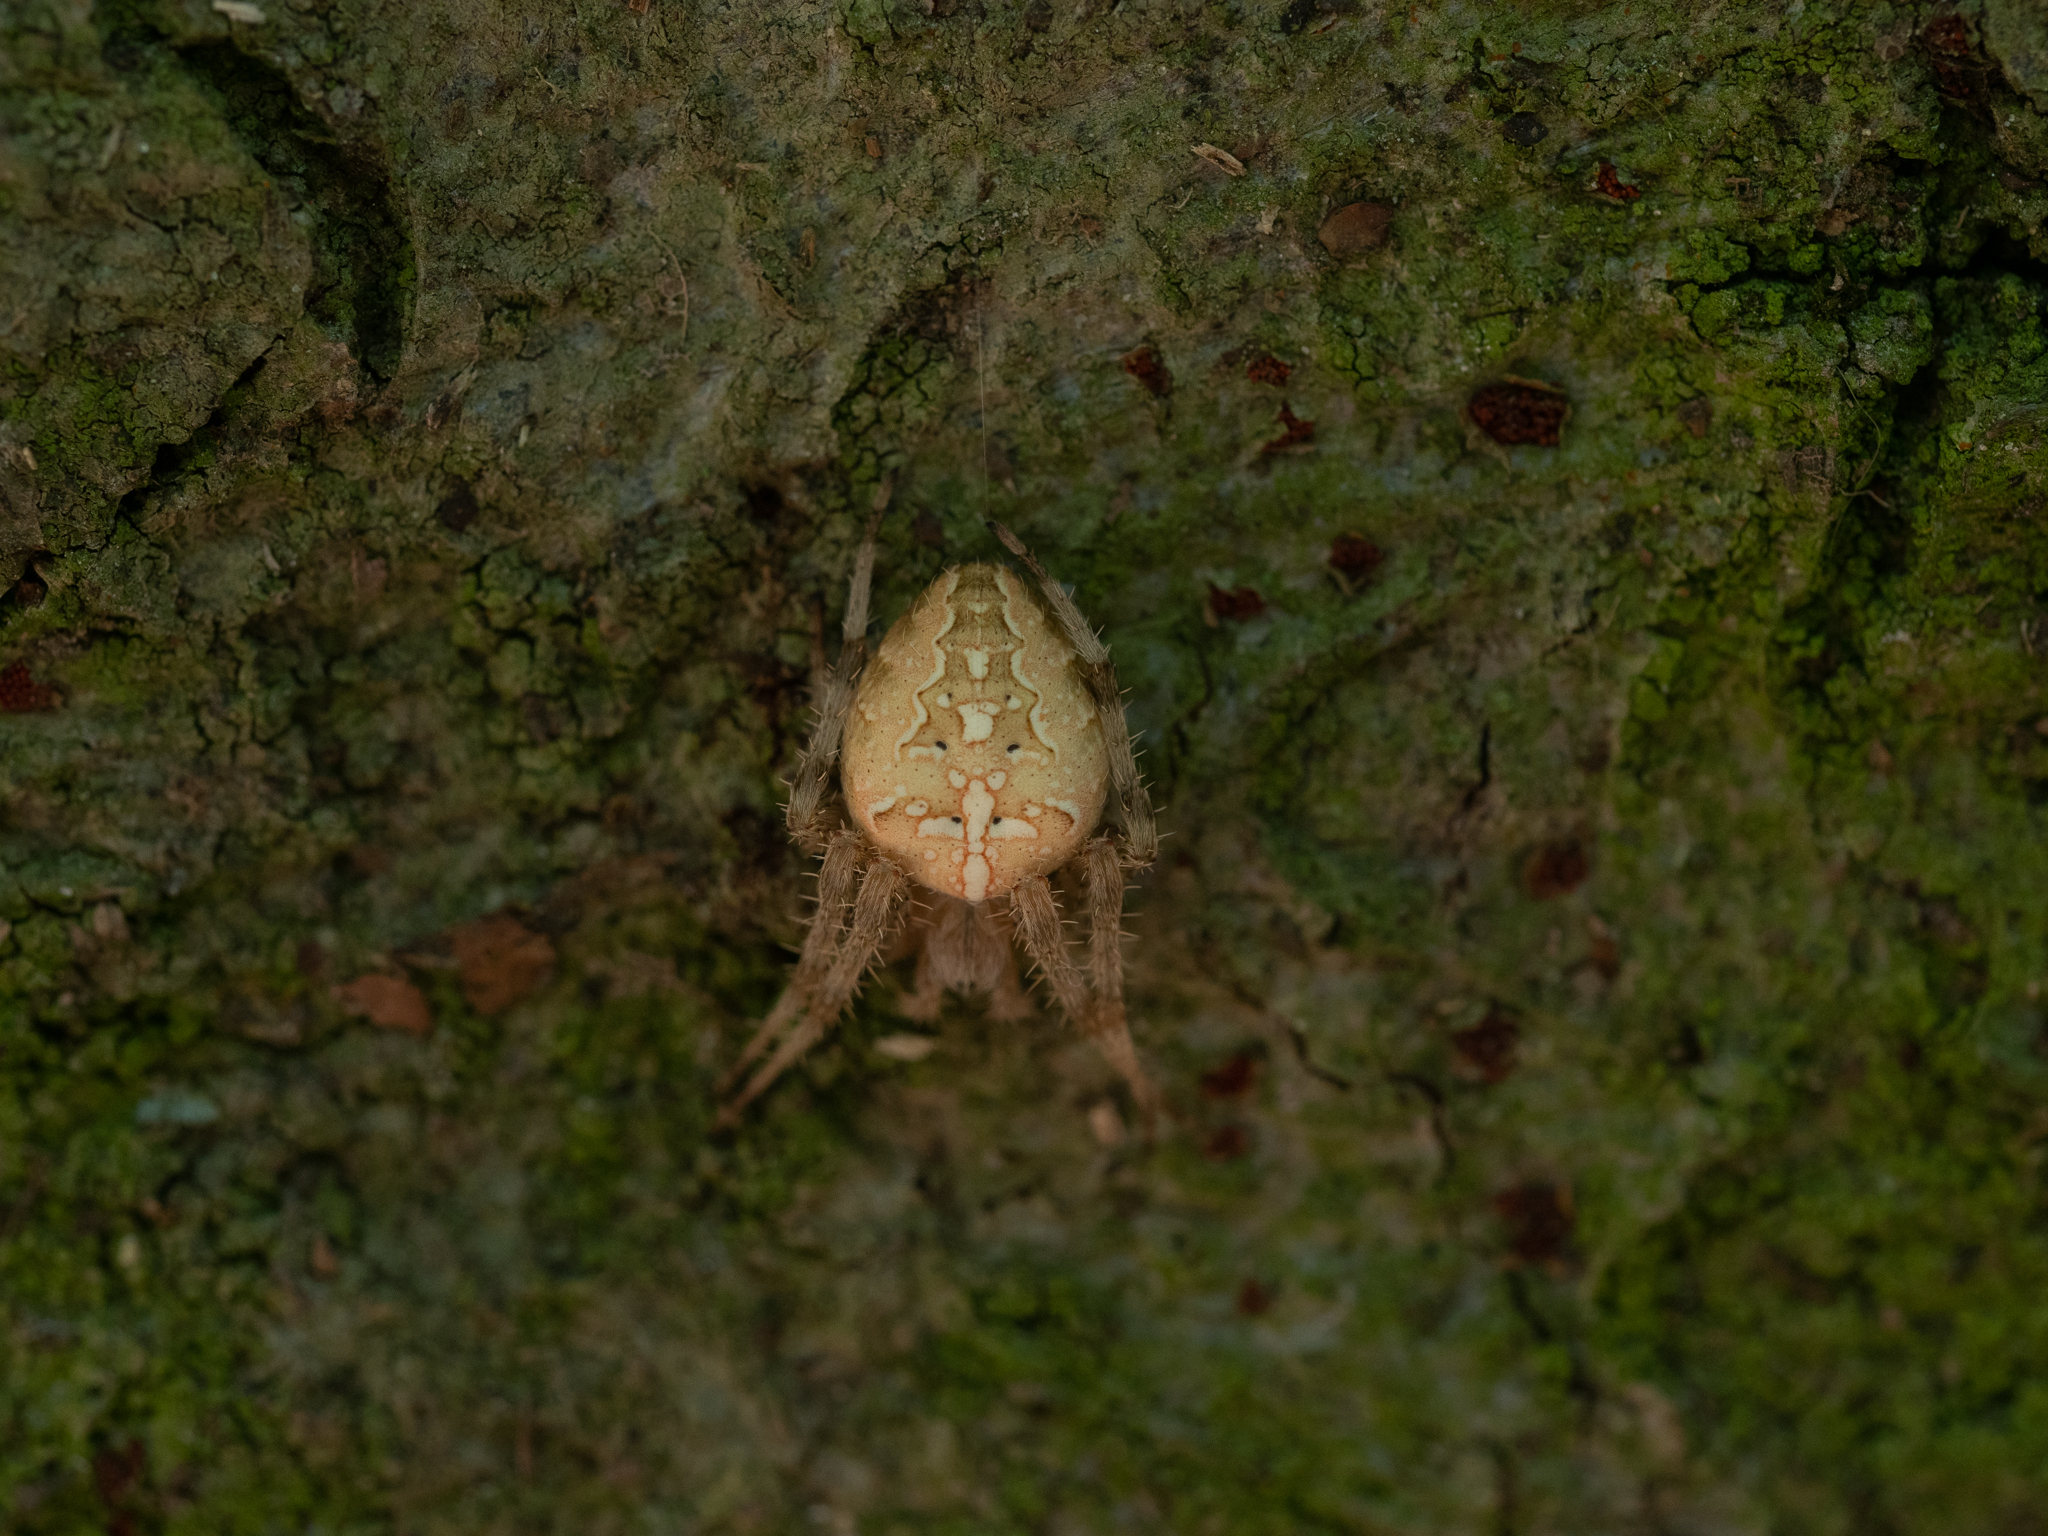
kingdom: Animalia
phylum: Arthropoda
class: Arachnida
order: Araneae
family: Araneidae
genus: Araneus
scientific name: Araneus diadematus
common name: Cross orbweaver
